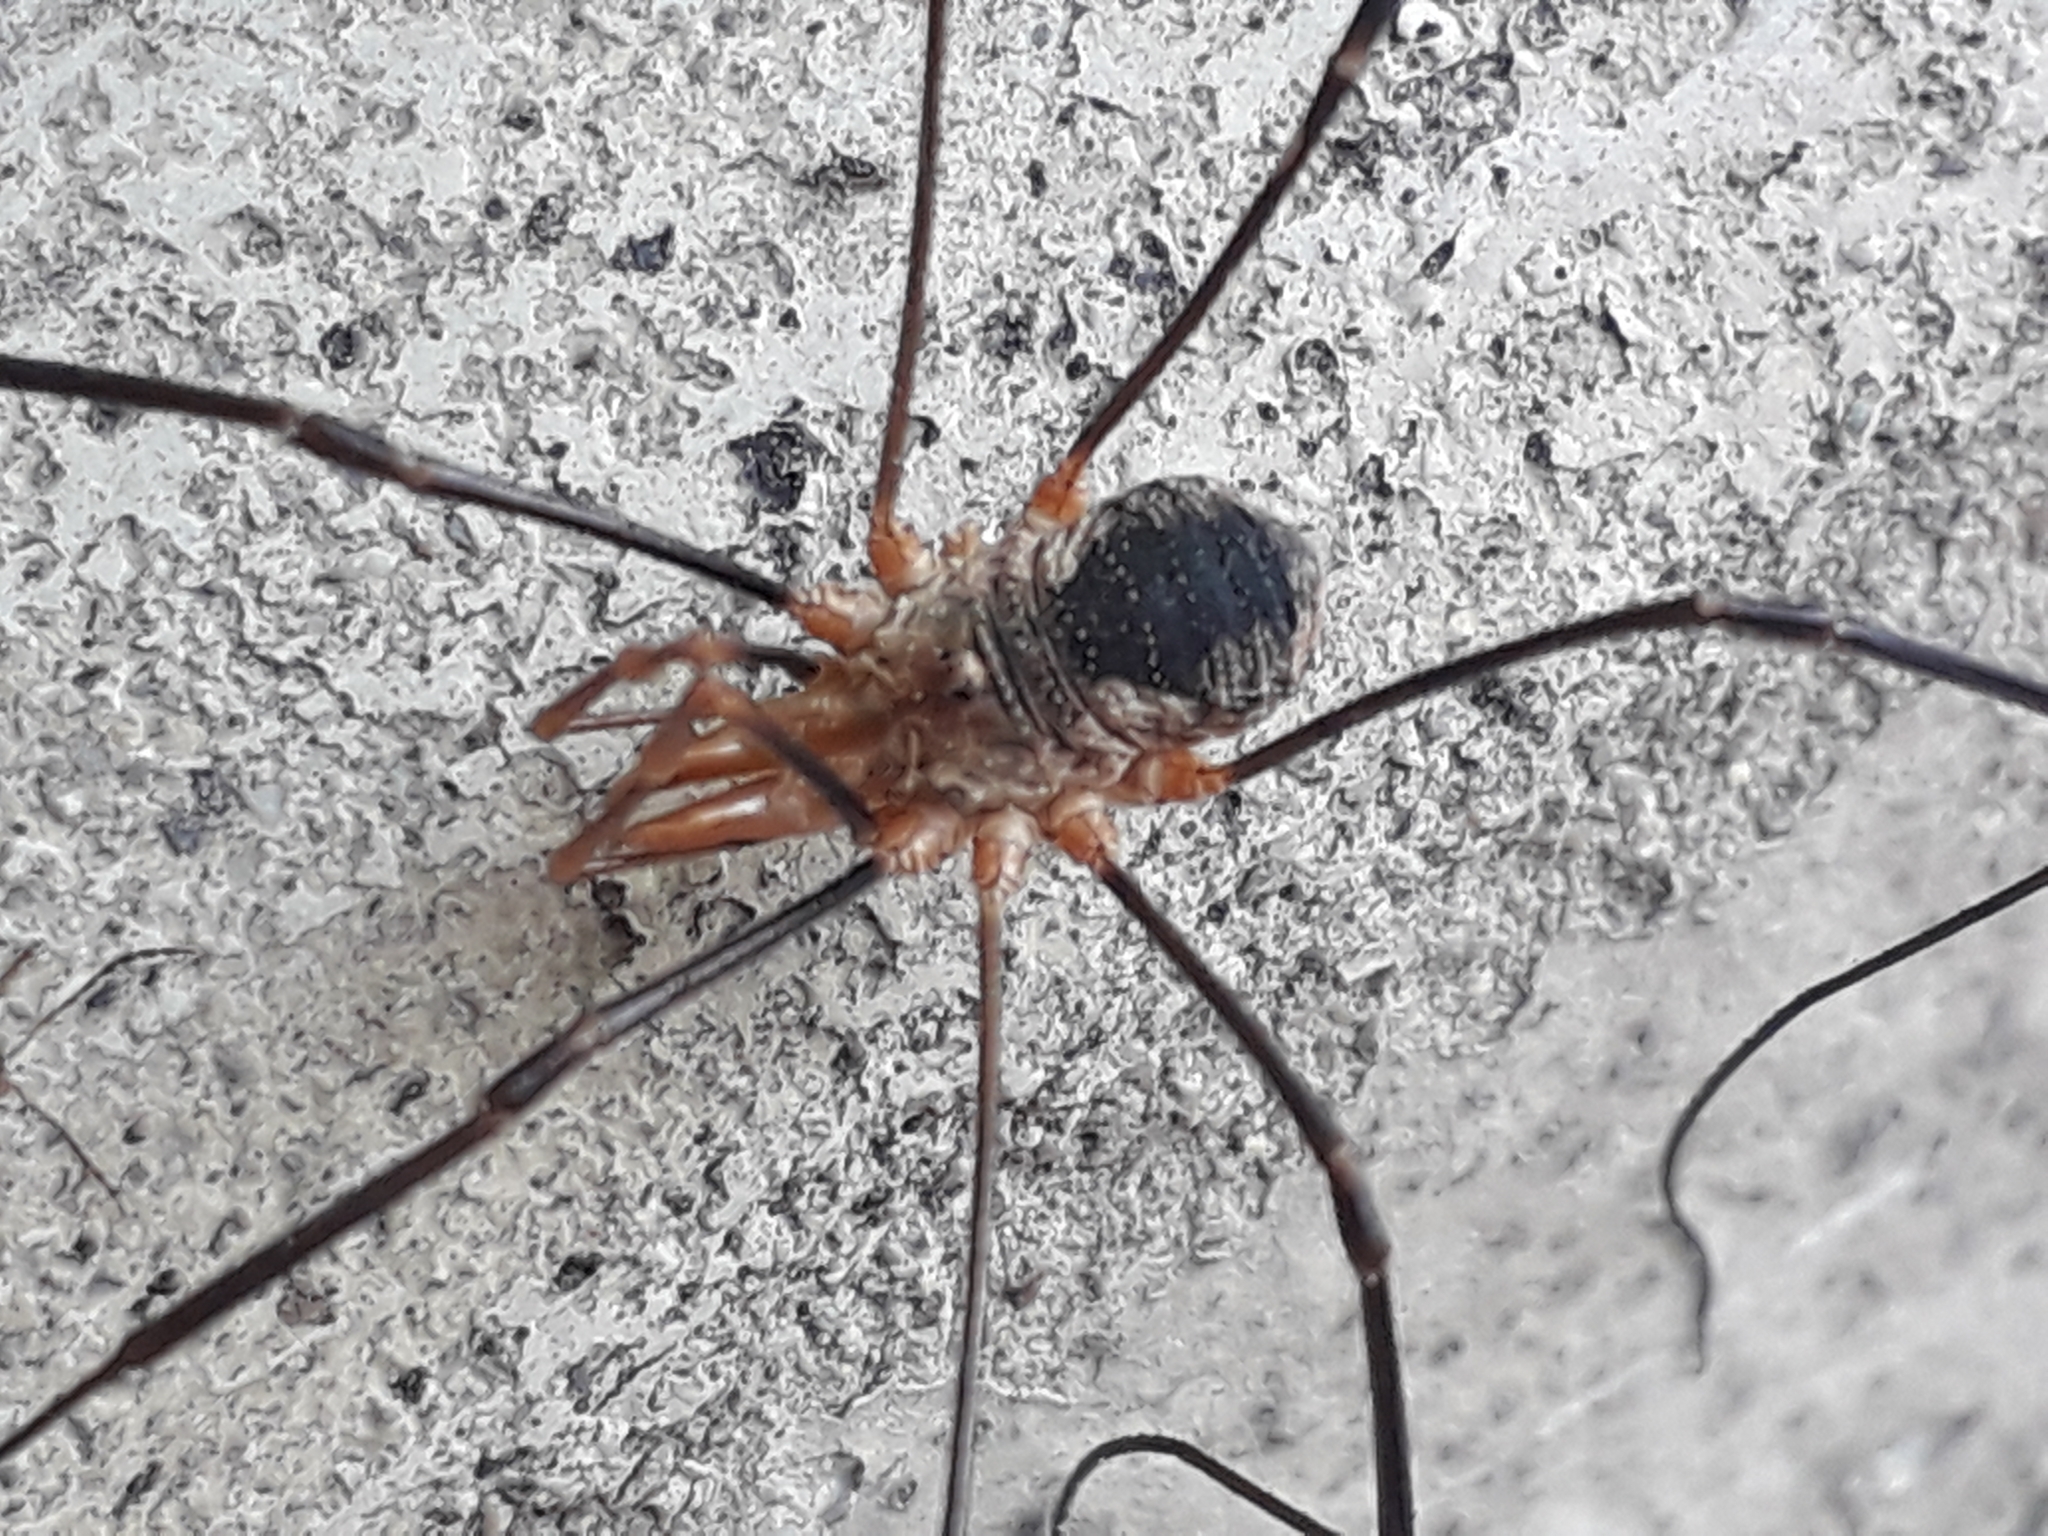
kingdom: Animalia
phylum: Arthropoda
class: Arachnida
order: Opiliones
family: Phalangiidae
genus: Phalangium
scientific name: Phalangium opilio
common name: Daddy longleg
